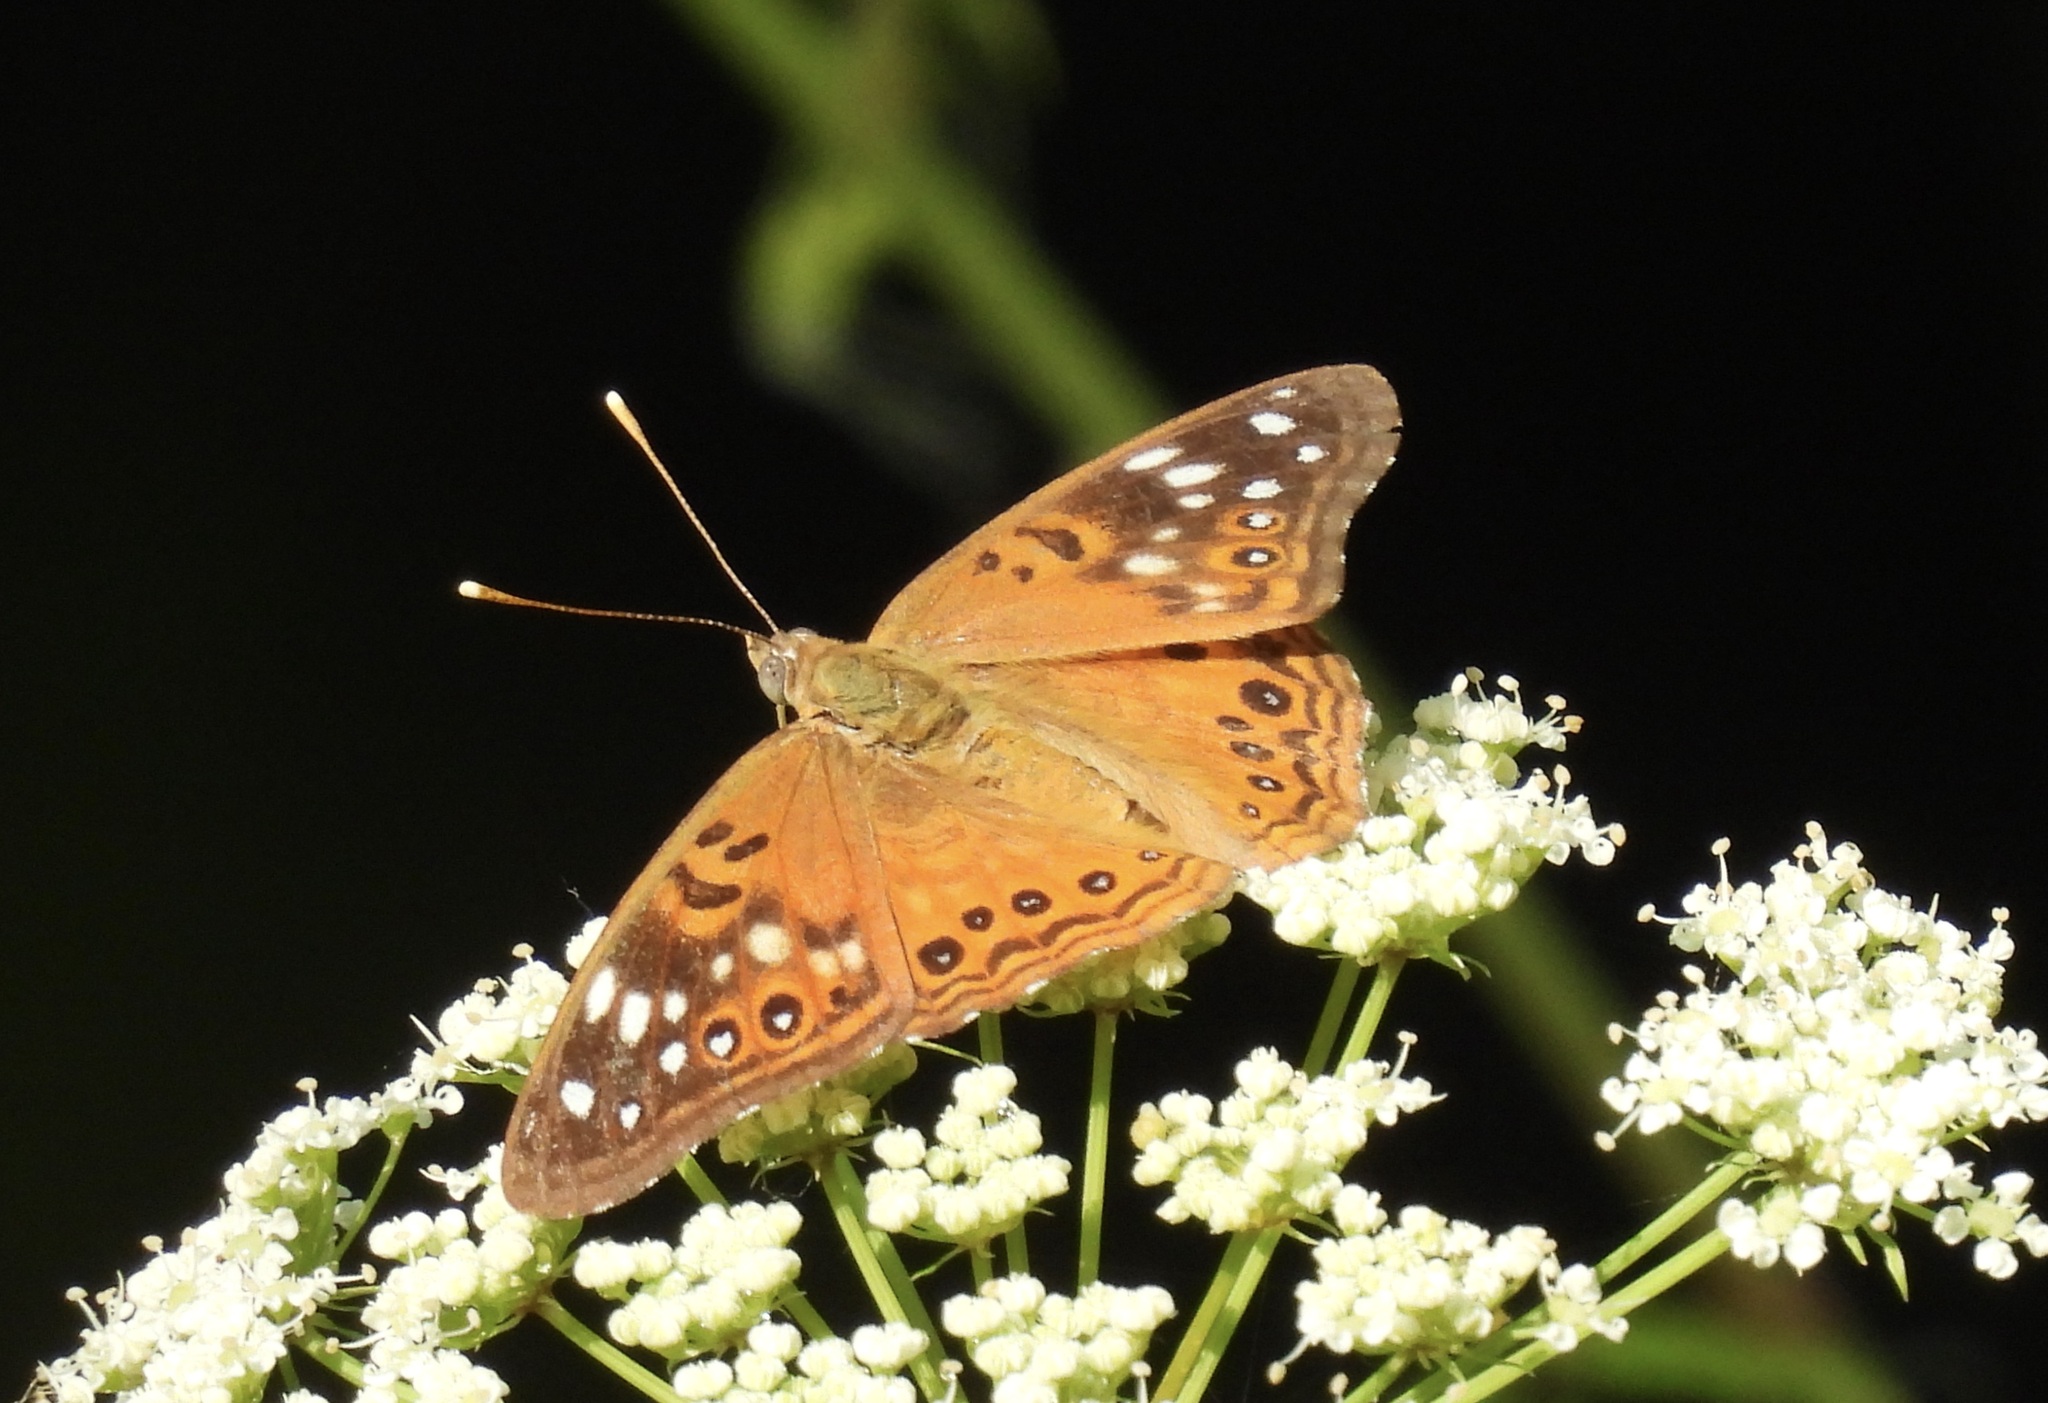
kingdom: Animalia
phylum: Arthropoda
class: Insecta
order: Lepidoptera
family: Nymphalidae
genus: Asterocampa
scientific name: Asterocampa celtis
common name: Hackberry emperor
